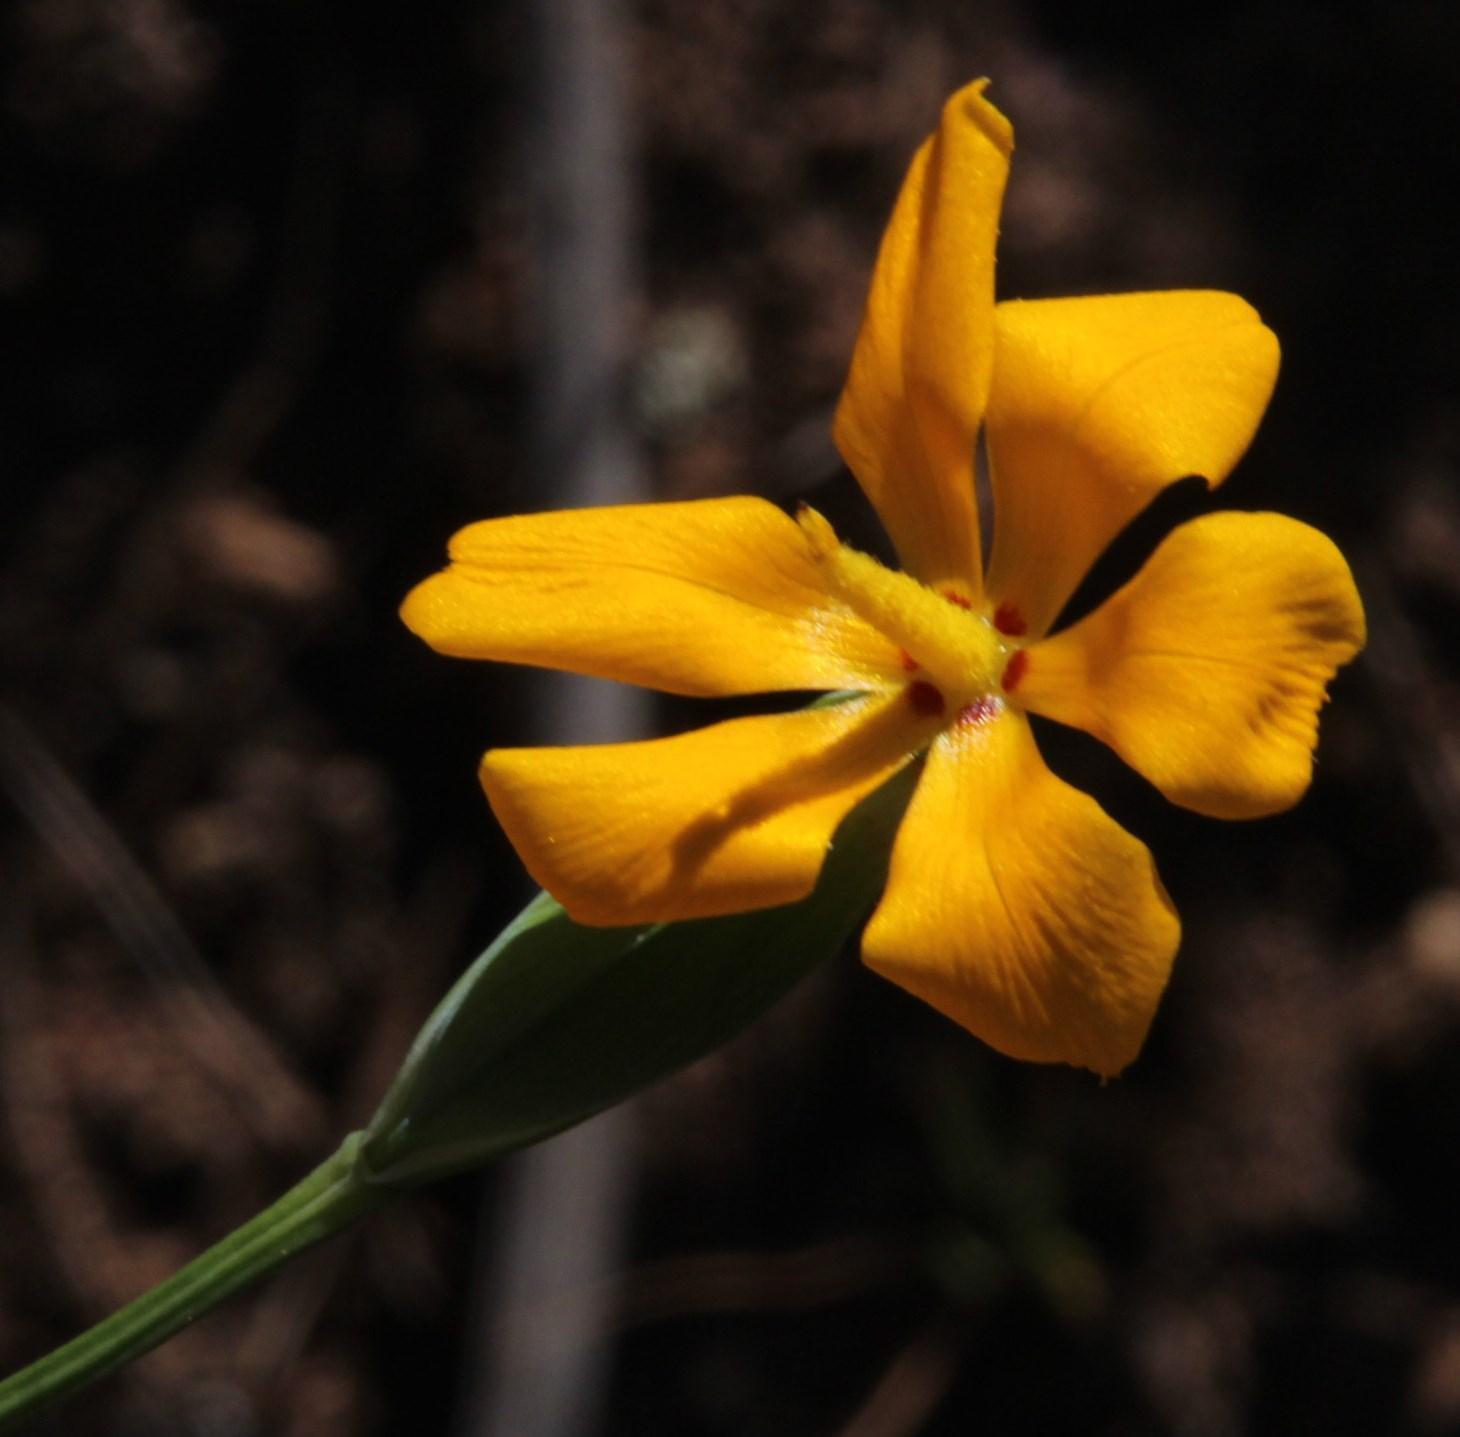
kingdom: Plantae
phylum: Tracheophyta
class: Liliopsida
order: Asparagales
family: Iridaceae
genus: Solenomelus
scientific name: Solenomelus pedunculatus
